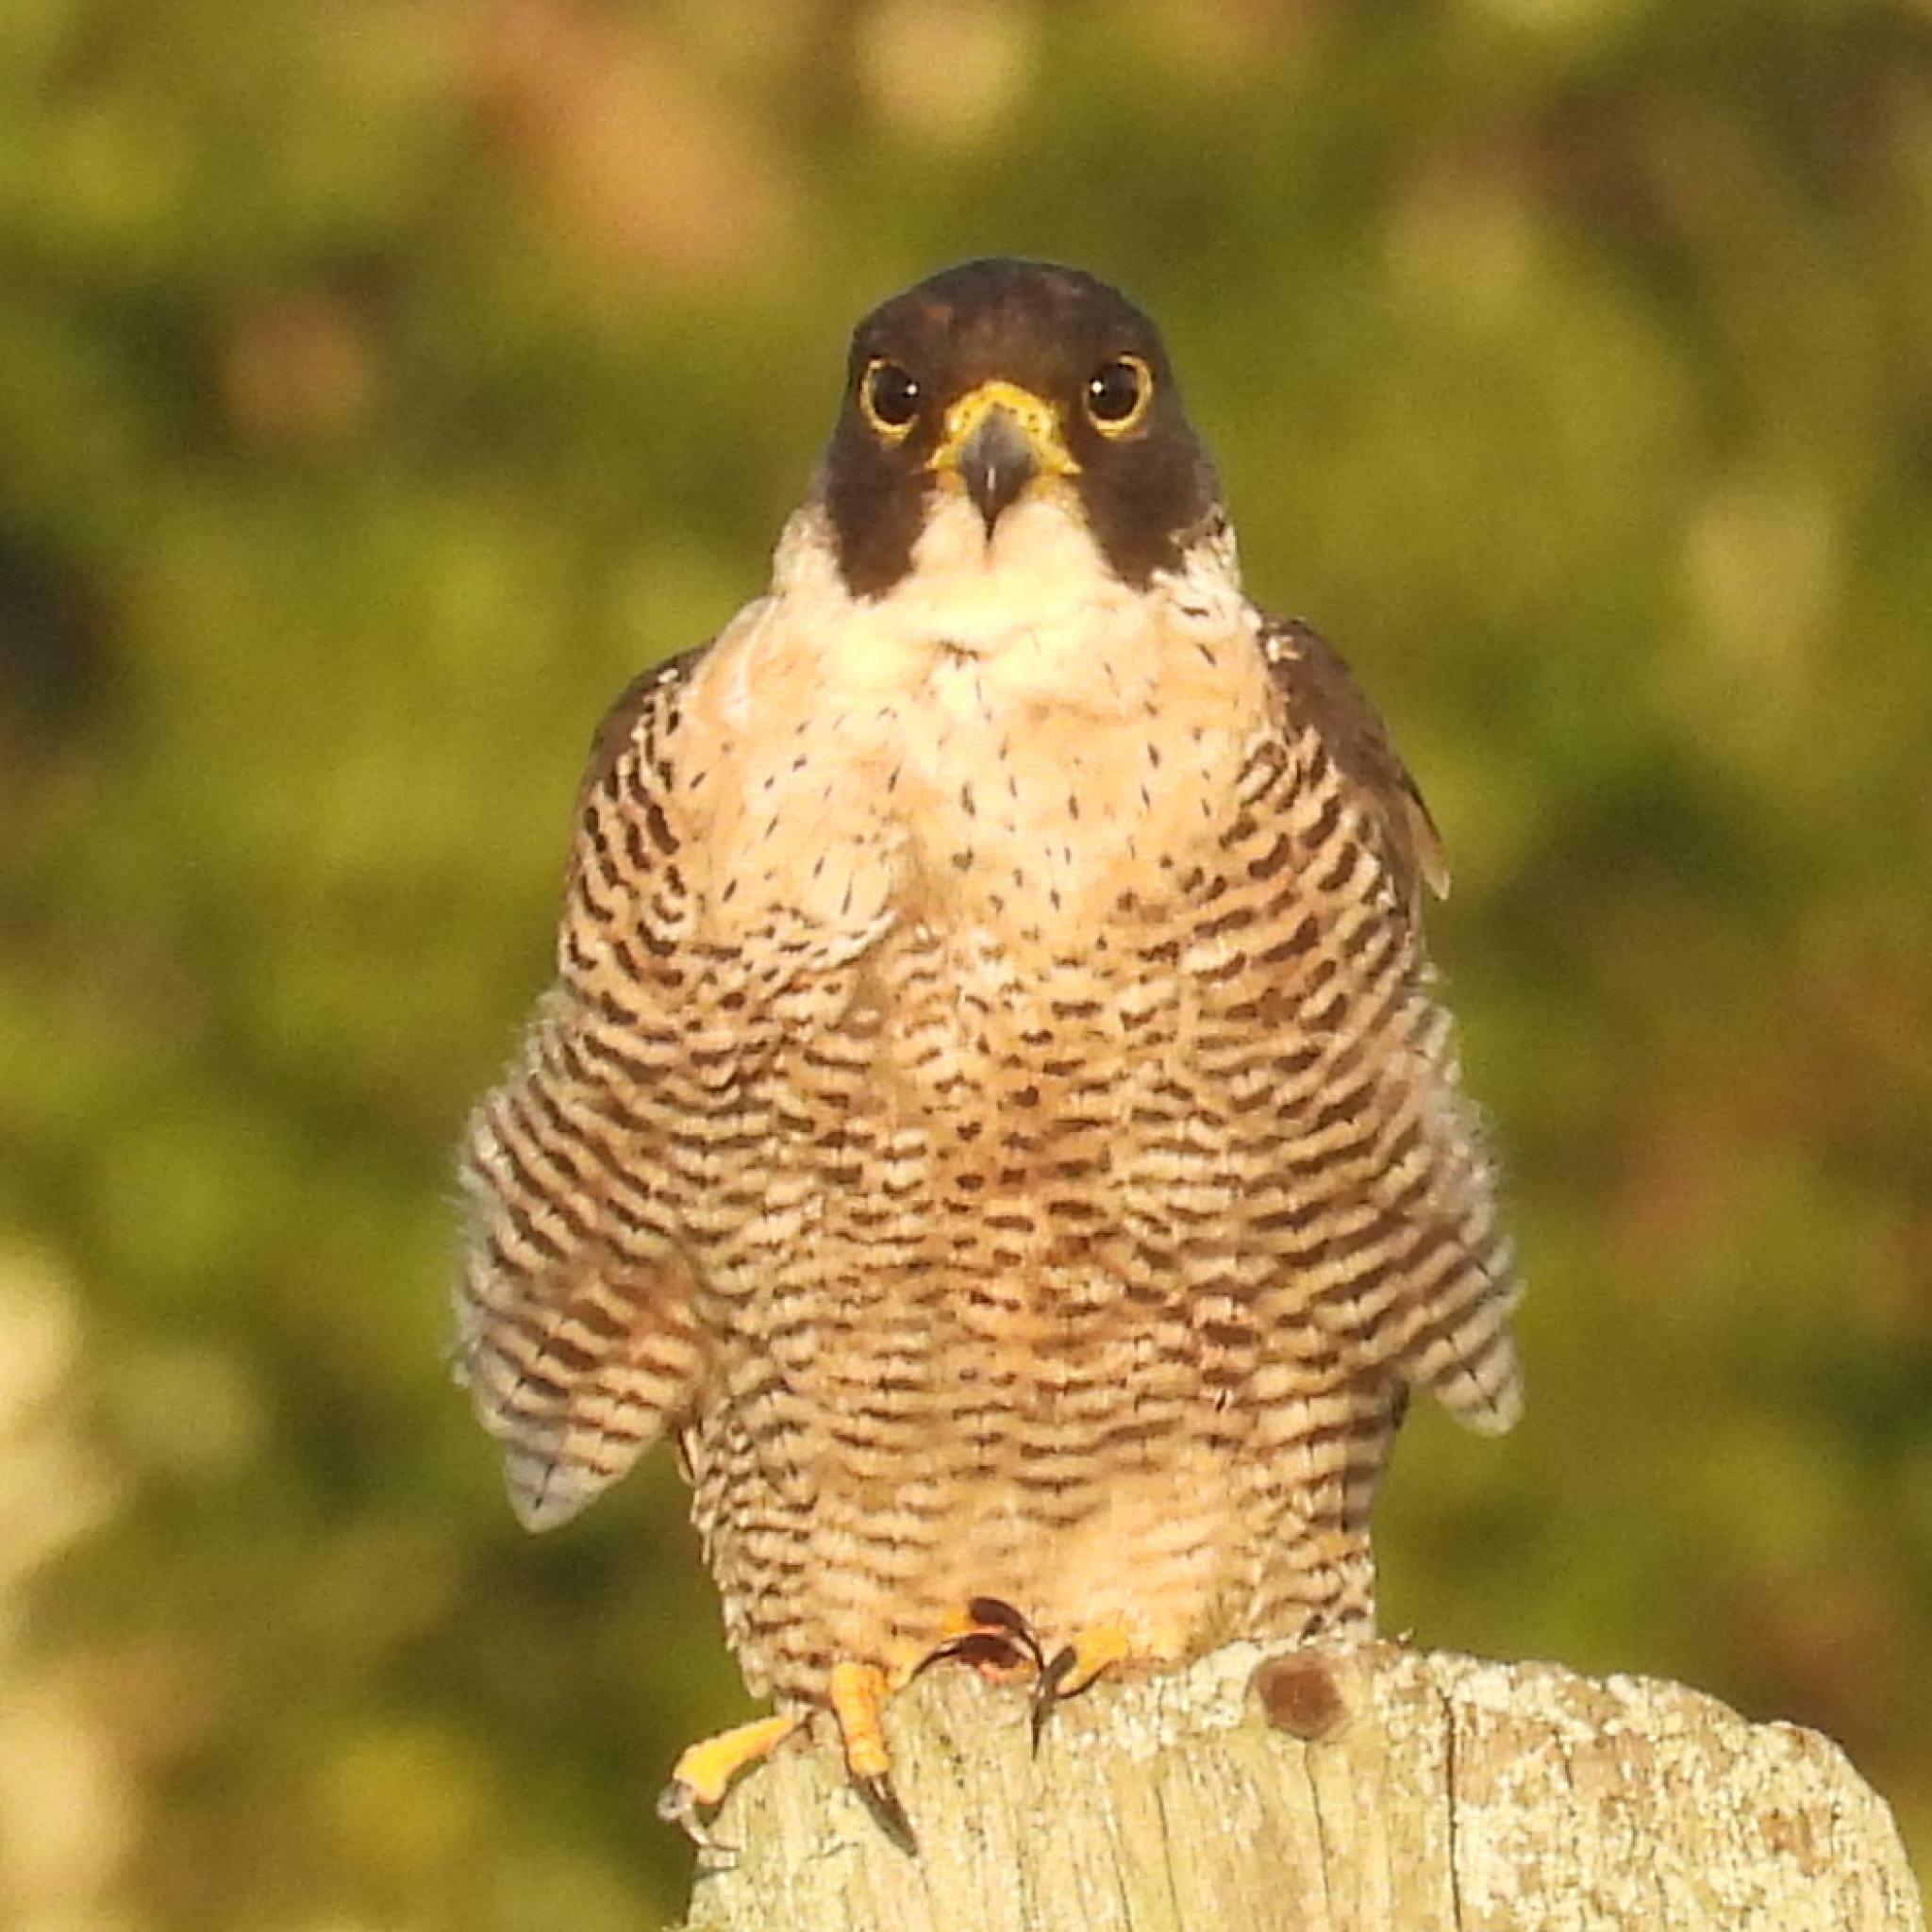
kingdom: Animalia
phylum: Chordata
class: Aves
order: Falconiformes
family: Falconidae
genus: Falco
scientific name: Falco peregrinus
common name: Peregrine falcon
